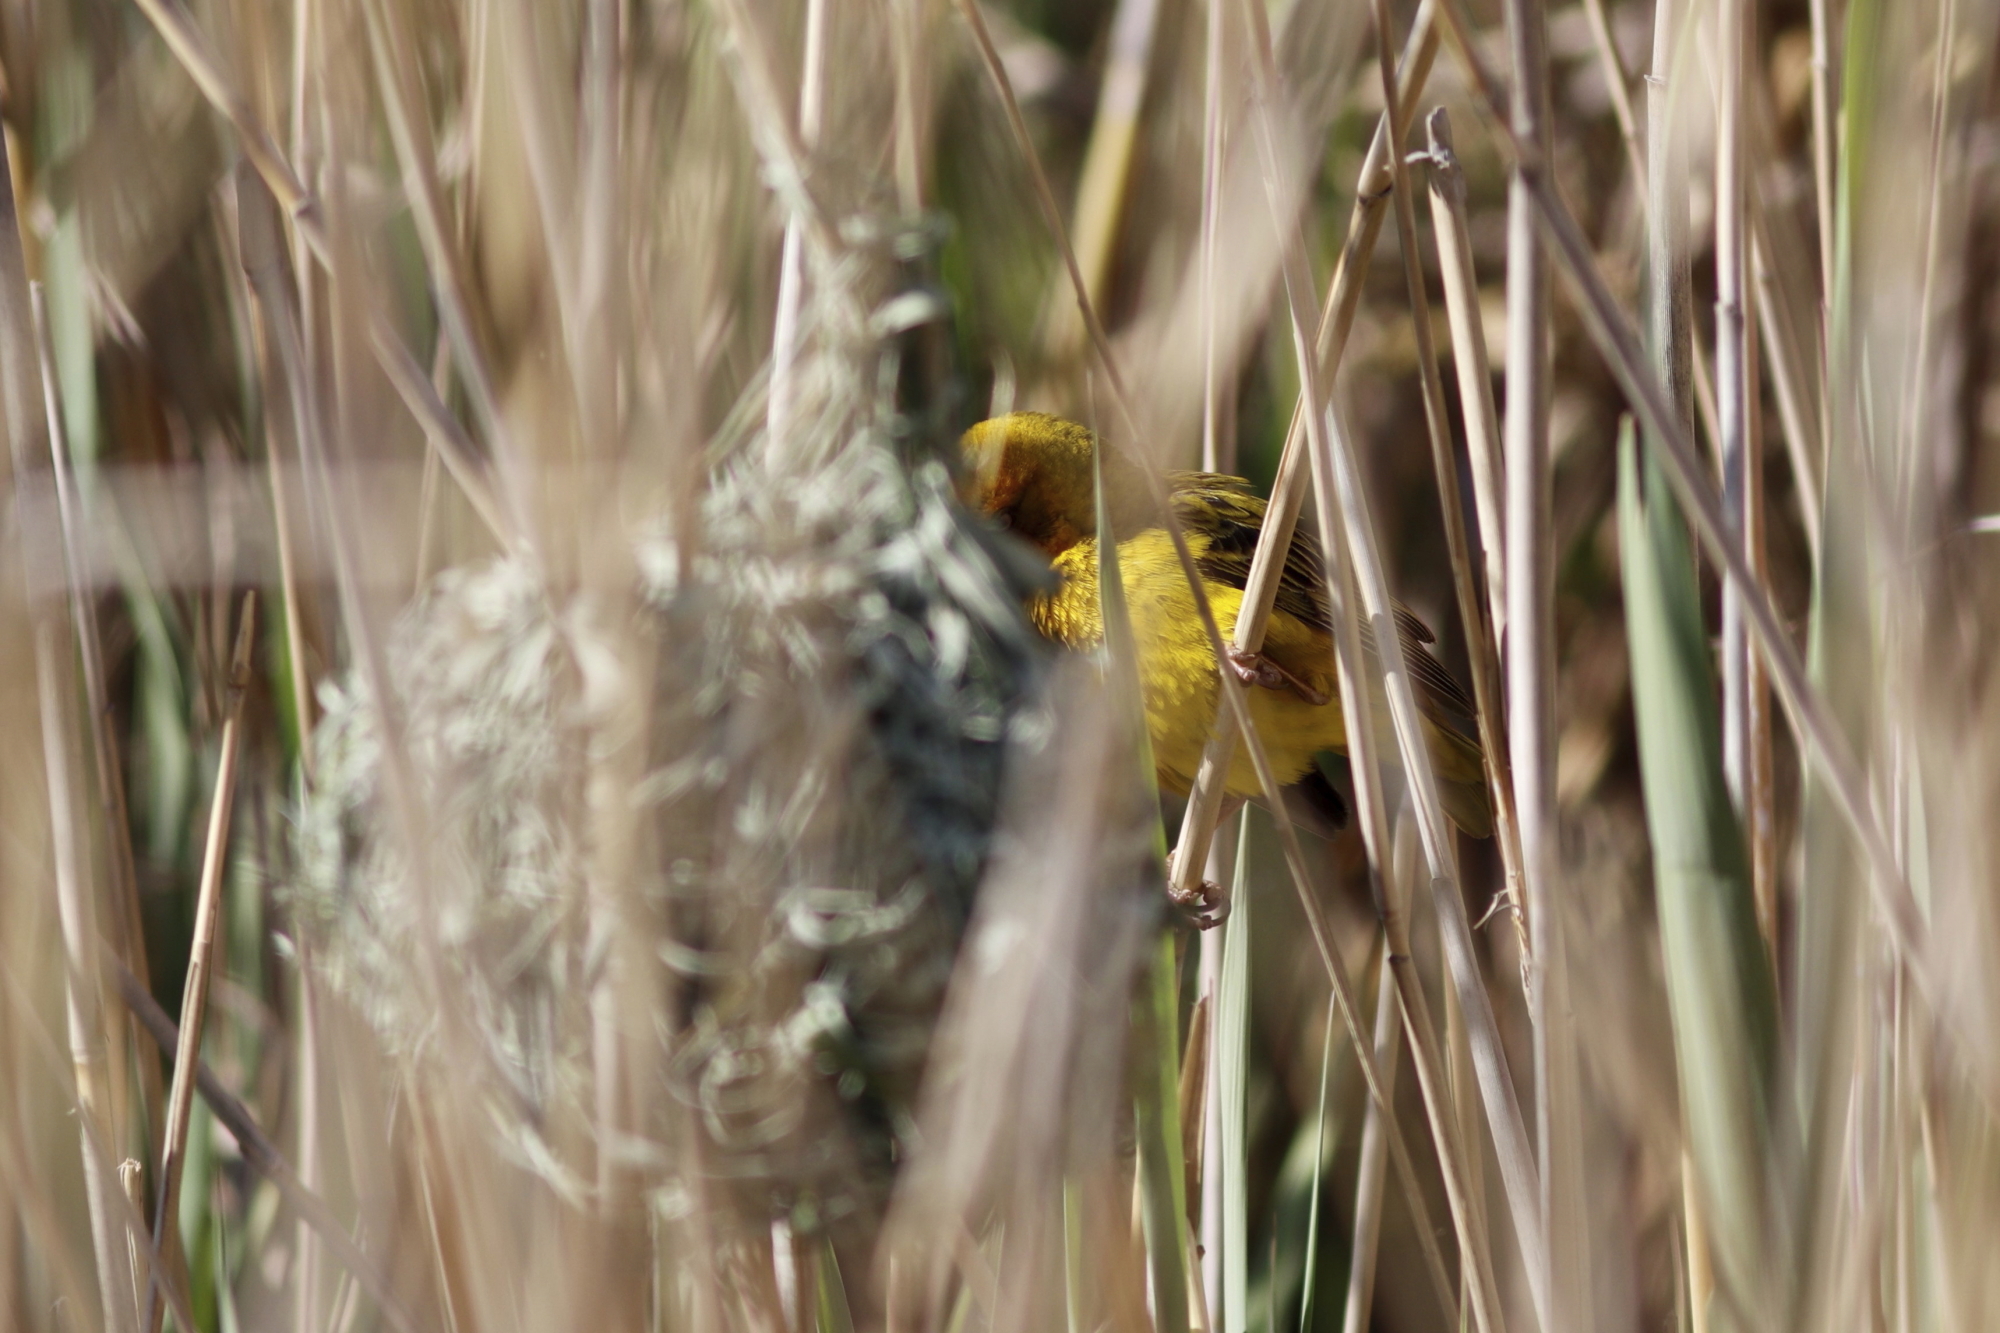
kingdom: Animalia
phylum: Chordata
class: Aves
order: Passeriformes
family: Ploceidae
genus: Ploceus
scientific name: Ploceus capensis
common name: Cape weaver
